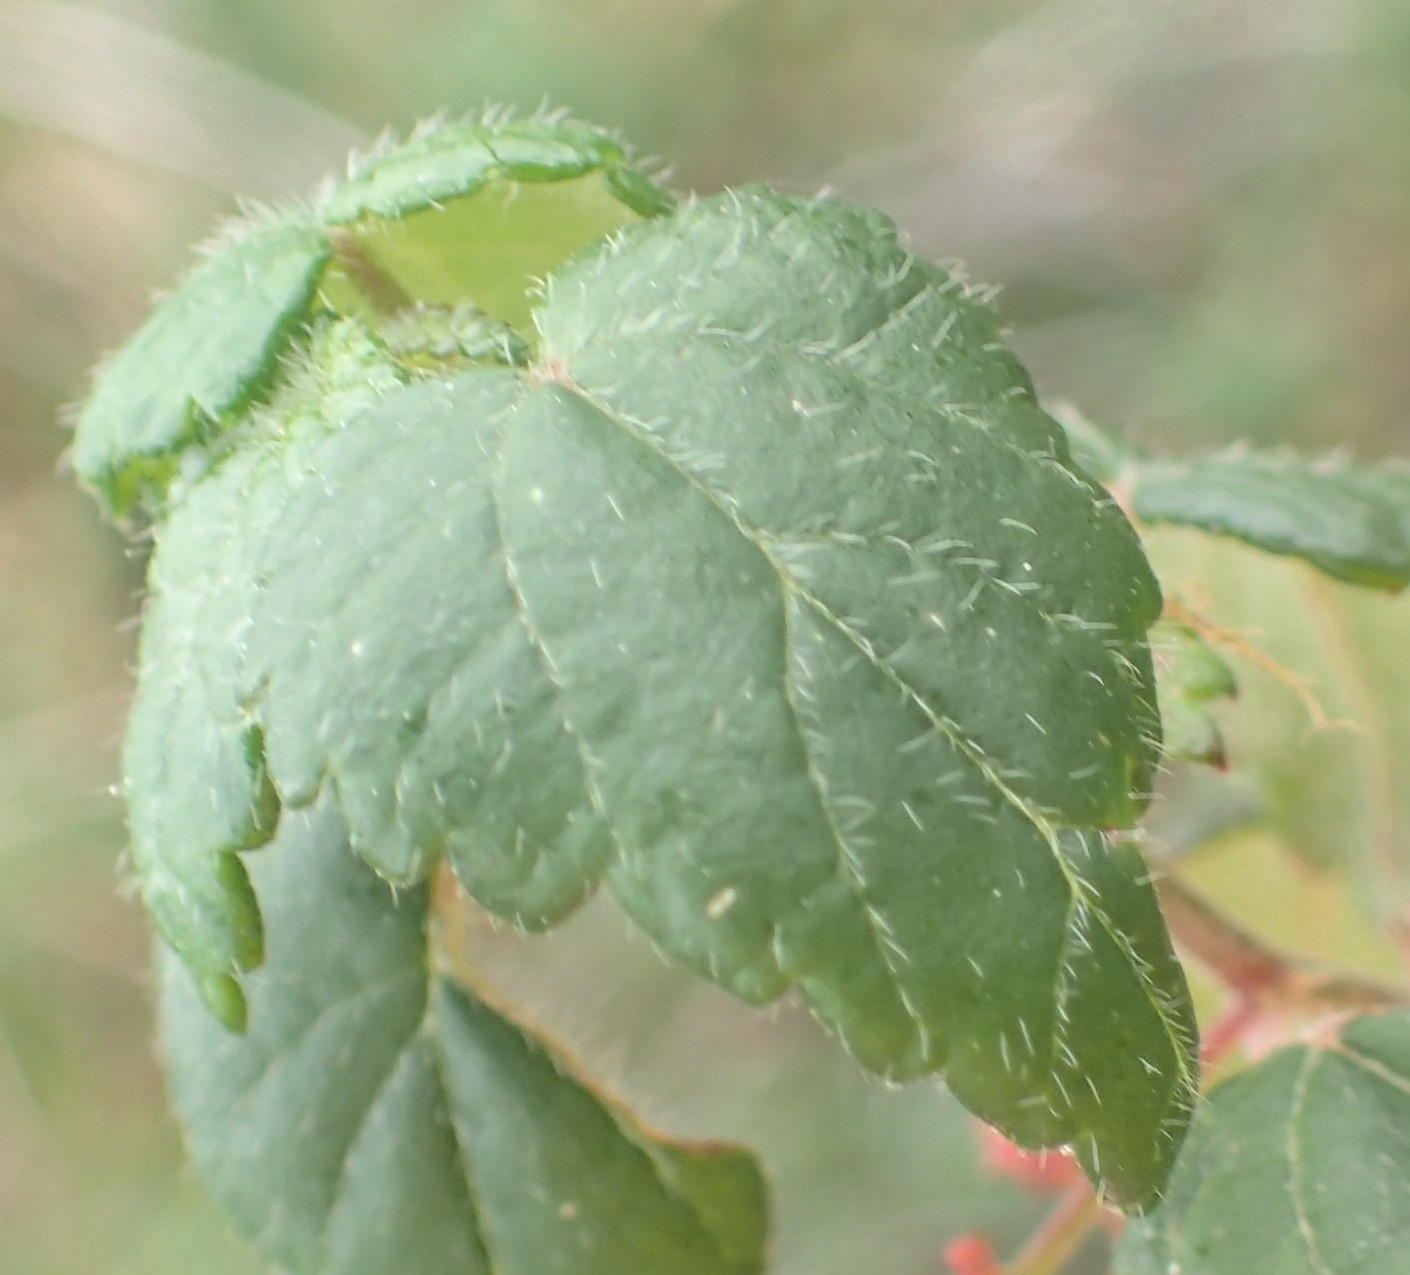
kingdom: Plantae
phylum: Tracheophyta
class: Magnoliopsida
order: Malpighiales
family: Euphorbiaceae
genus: Bernardia
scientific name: Bernardia corensis
